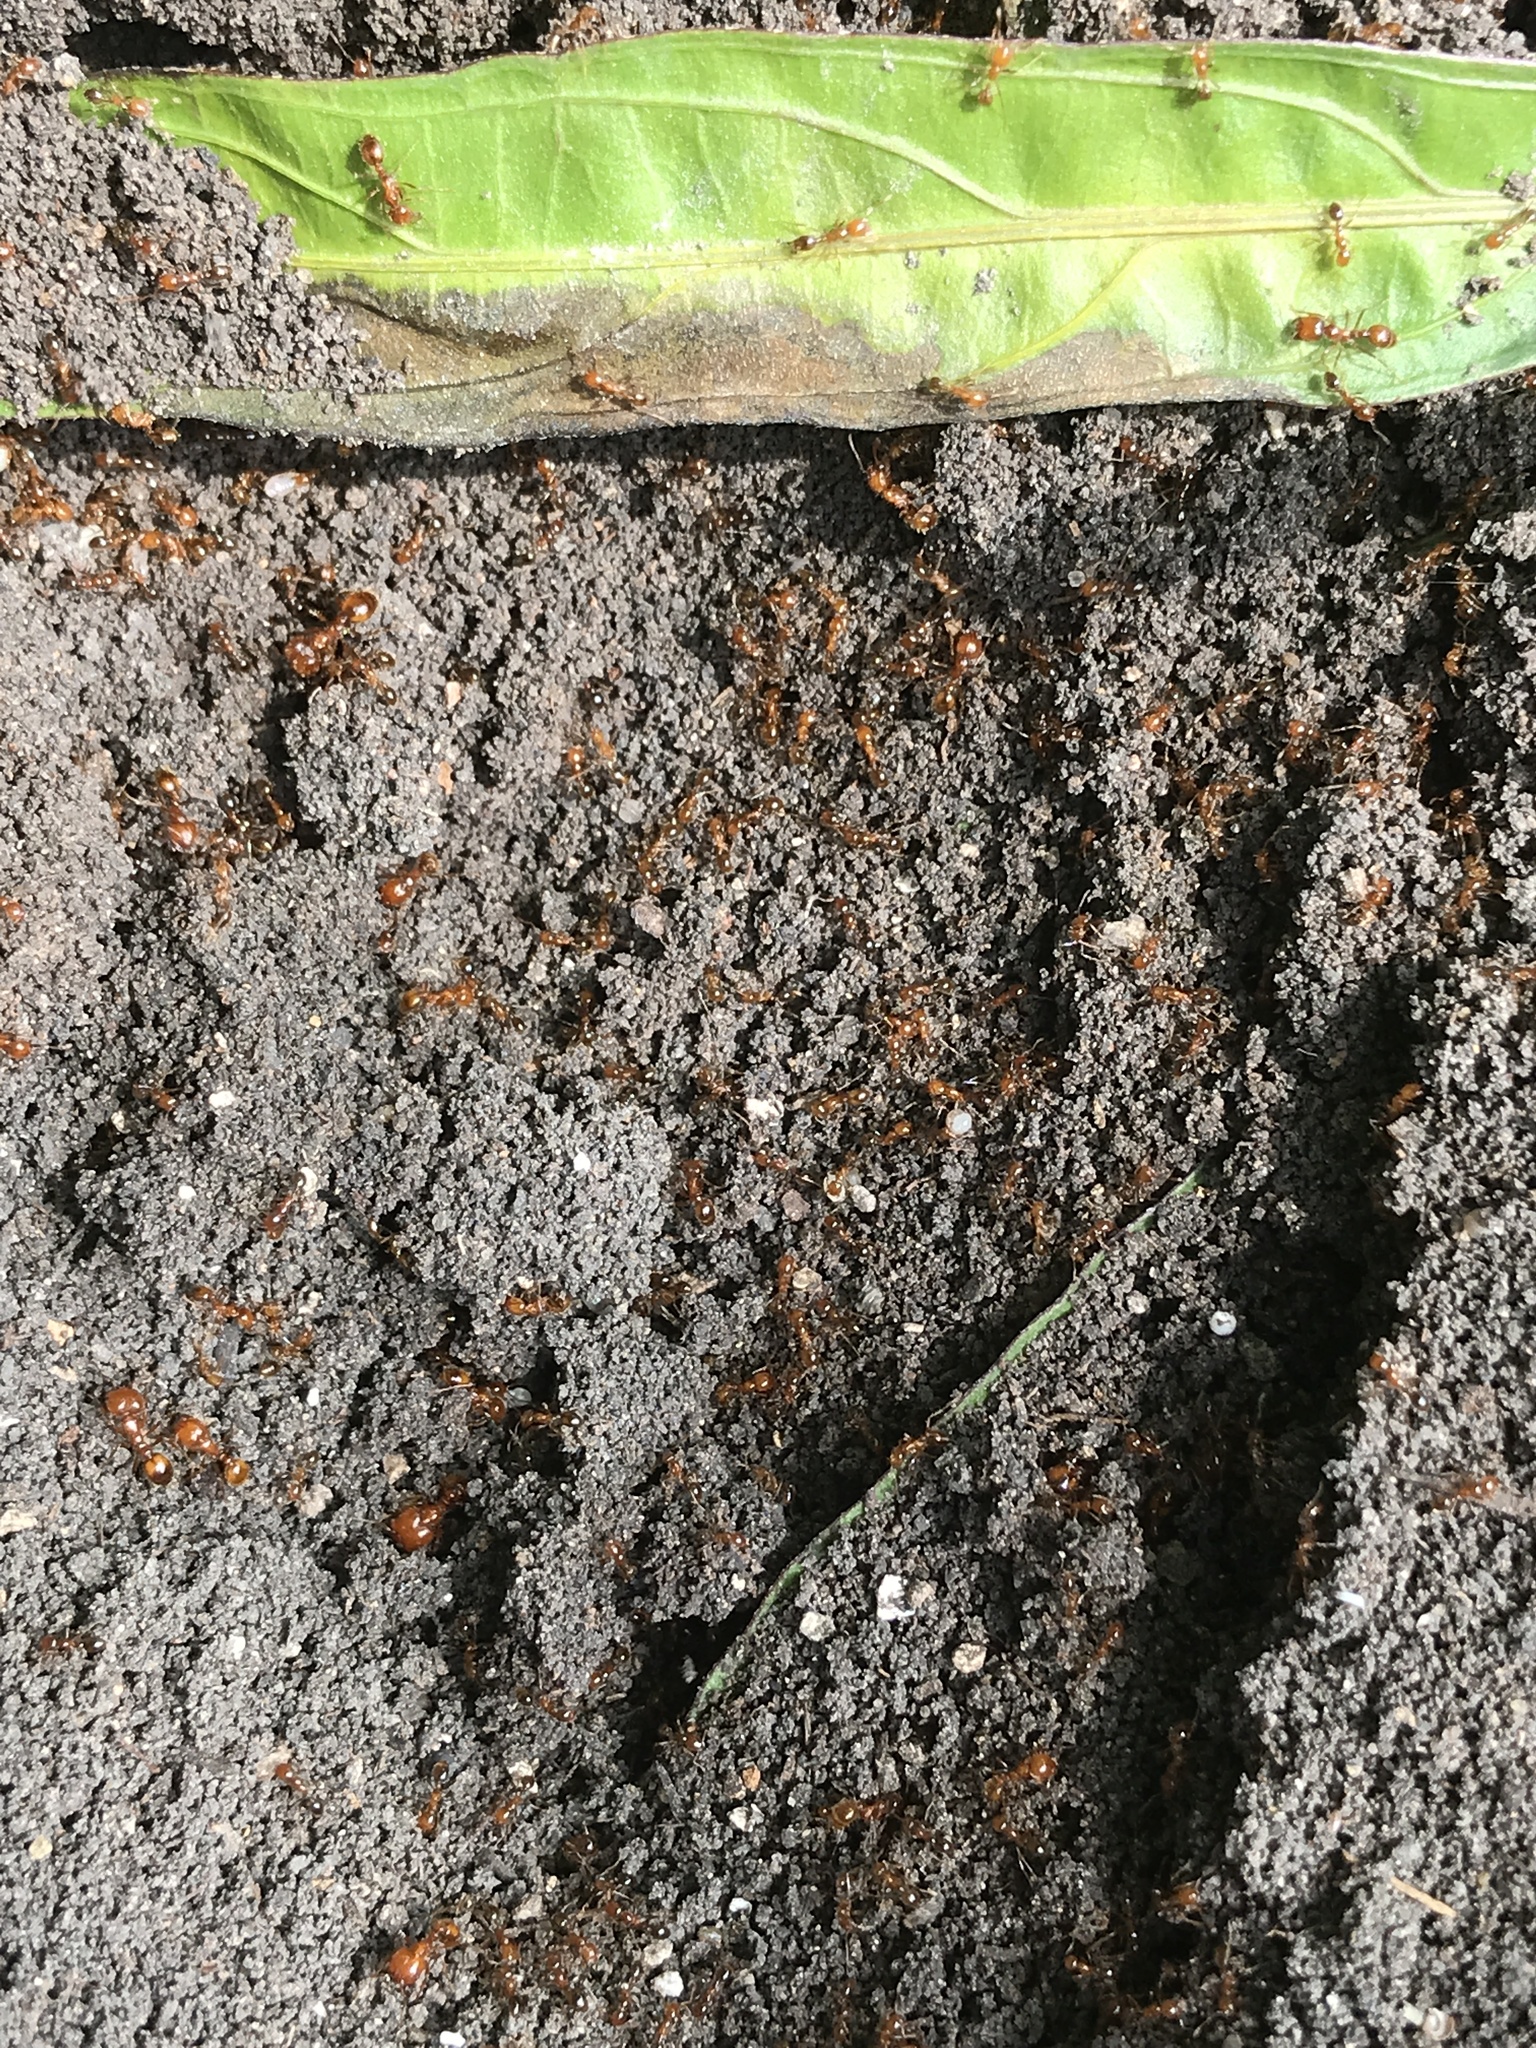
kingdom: Animalia
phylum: Arthropoda
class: Insecta
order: Hymenoptera
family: Formicidae
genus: Solenopsis
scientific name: Solenopsis geminata
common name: Tropical fire ant
